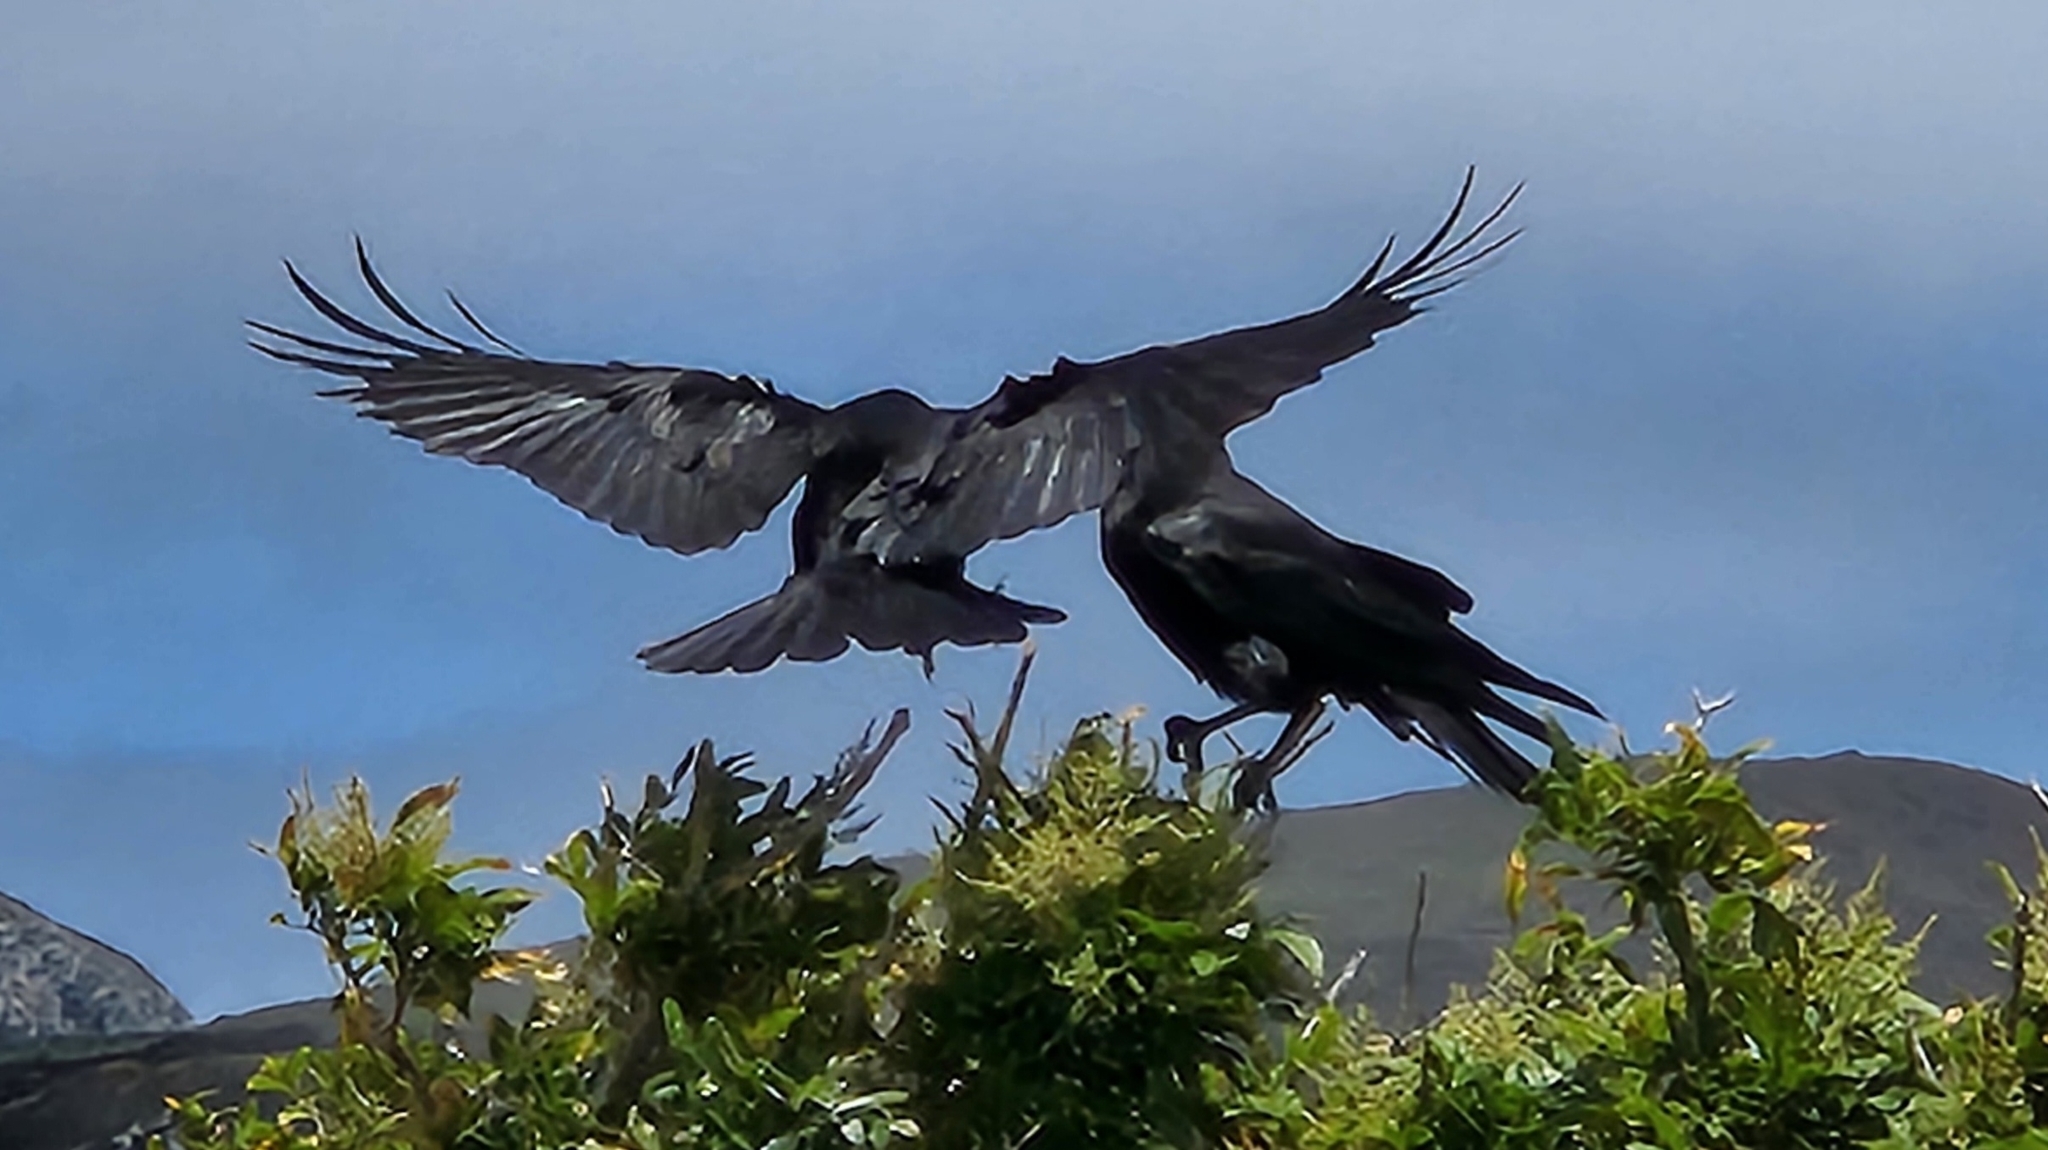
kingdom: Animalia
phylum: Chordata
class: Aves
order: Passeriformes
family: Corvidae
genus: Corvus
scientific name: Corvus corax
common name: Common raven
